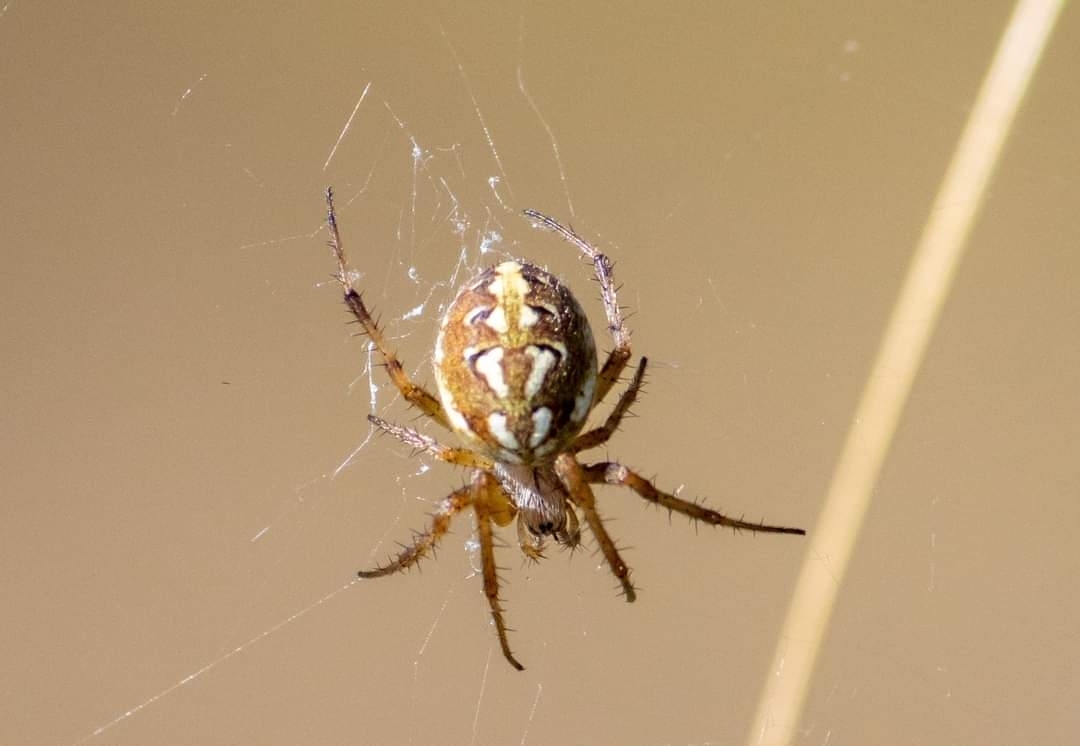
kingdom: Animalia
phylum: Arthropoda
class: Arachnida
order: Araneae
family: Araneidae
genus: Neoscona
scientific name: Neoscona adianta
